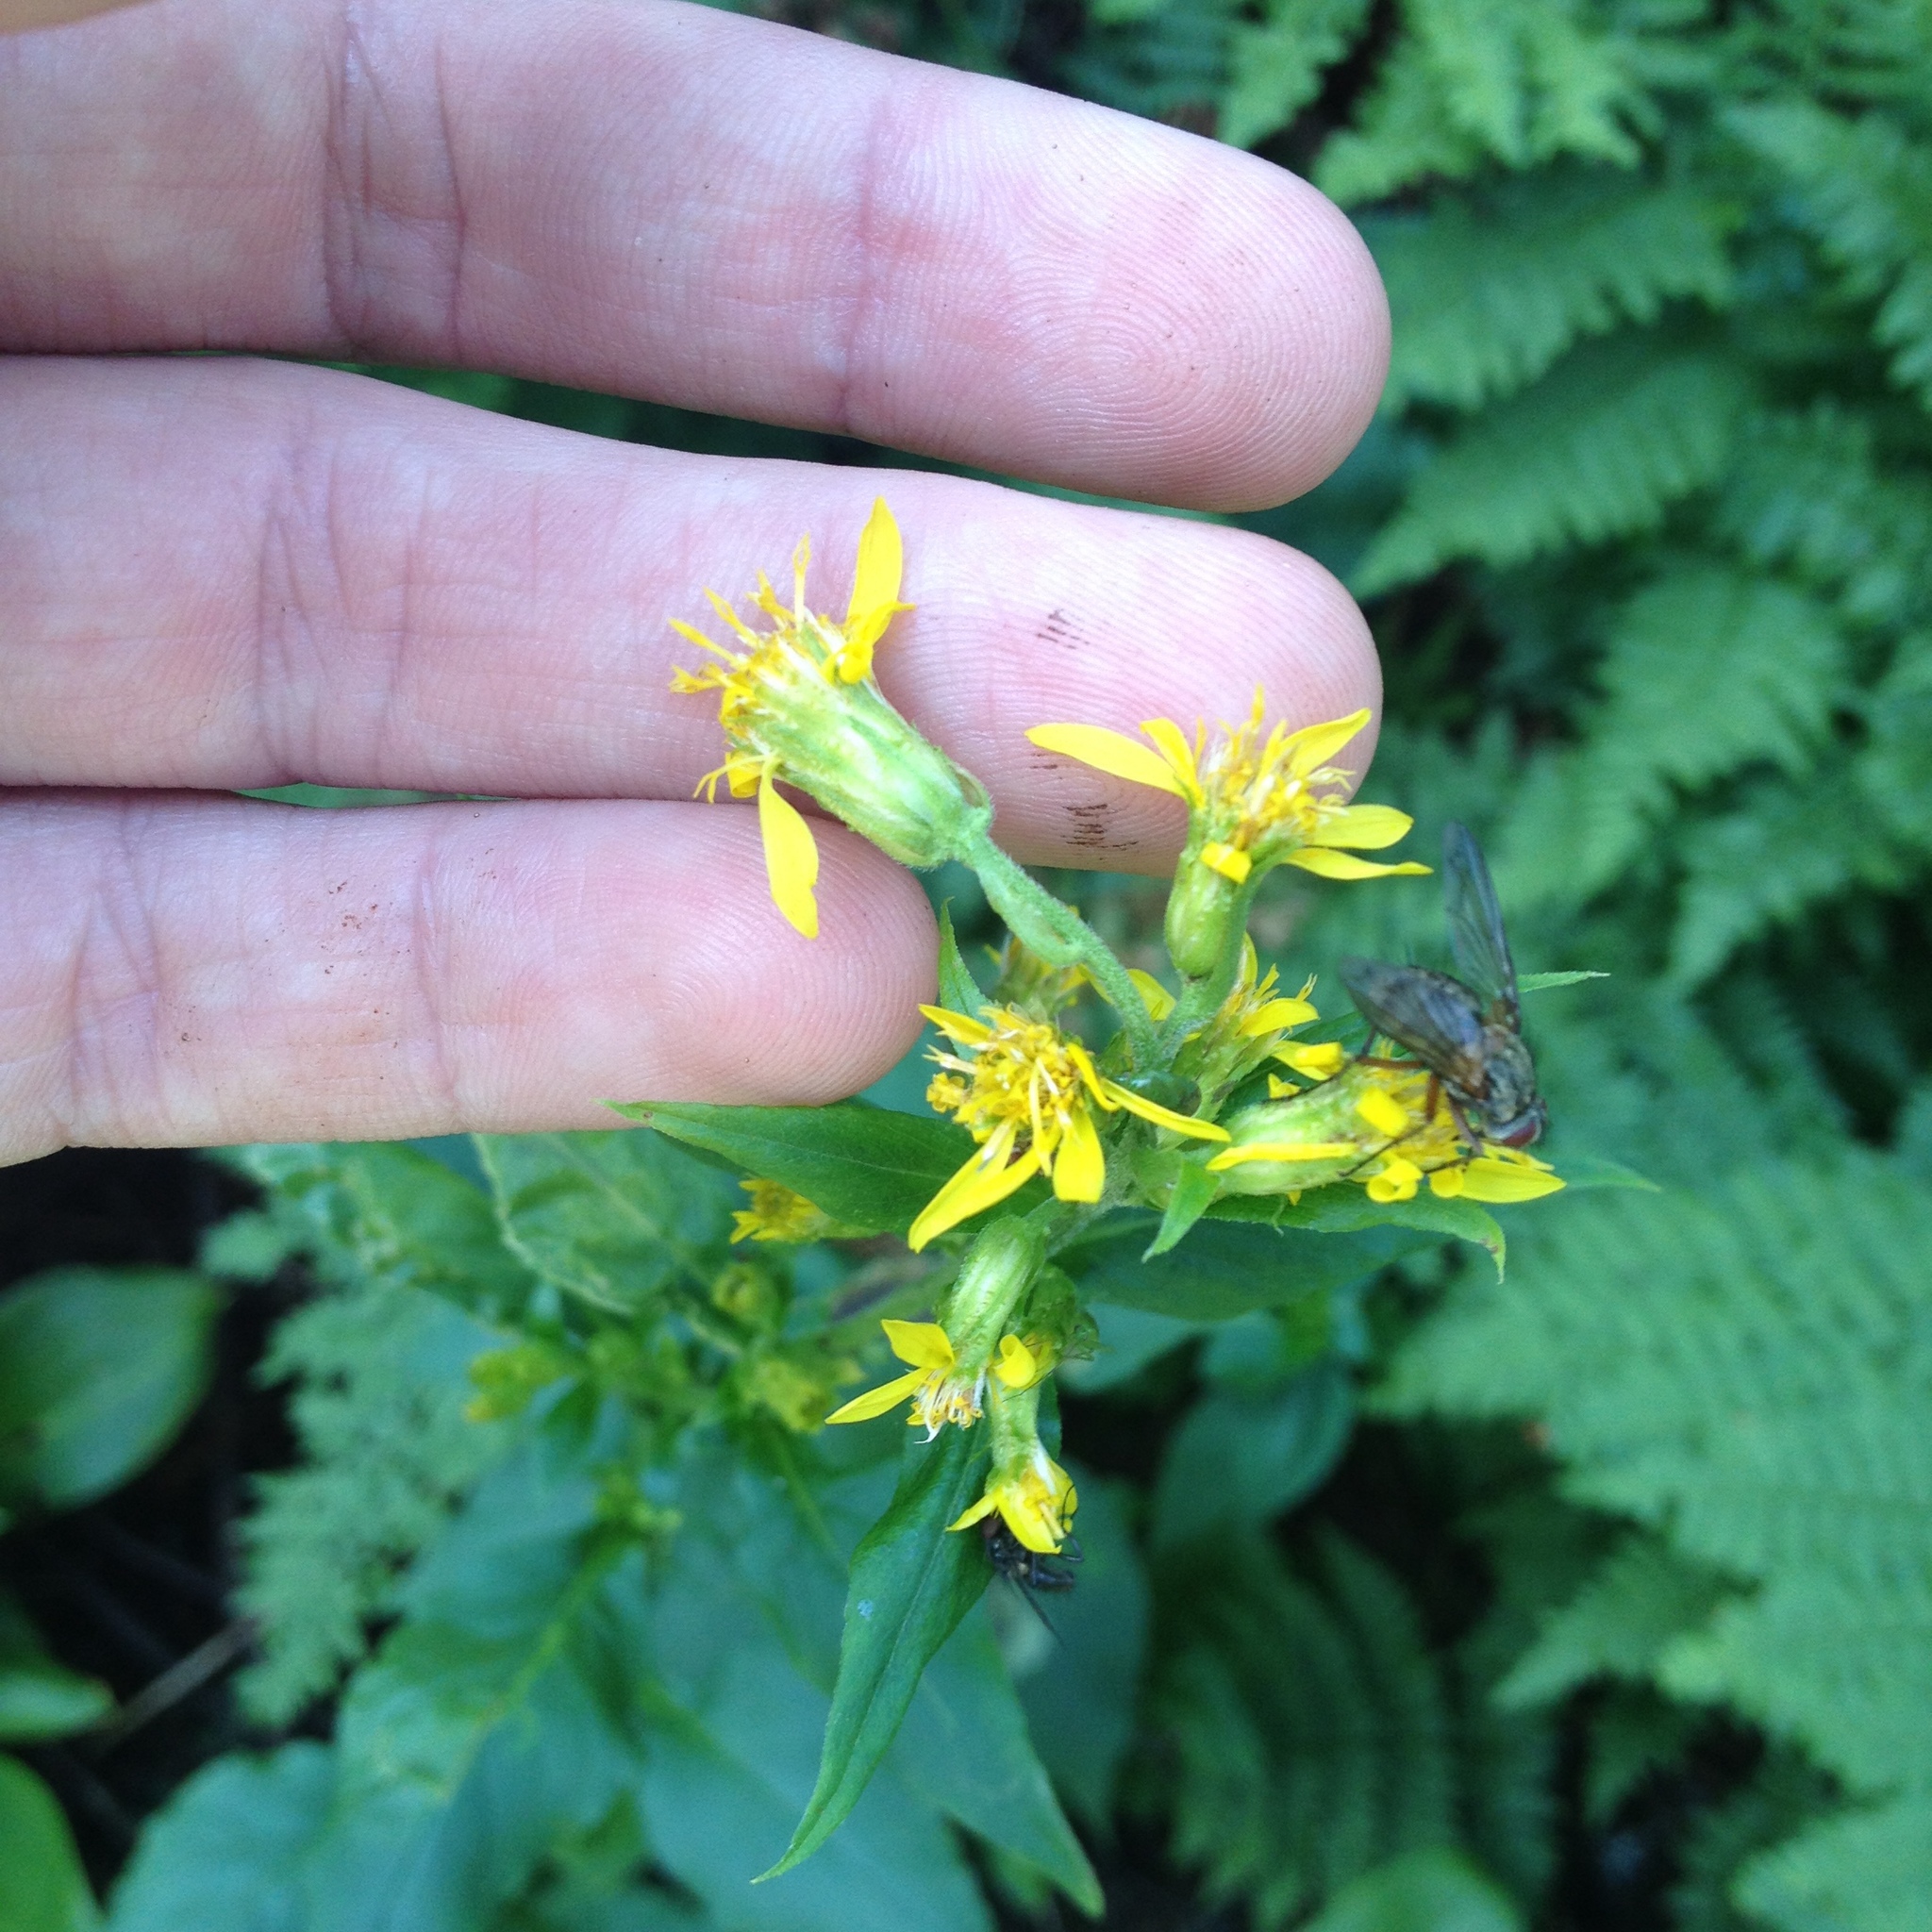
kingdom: Plantae
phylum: Tracheophyta
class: Magnoliopsida
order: Asterales
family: Asteraceae
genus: Solidago
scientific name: Solidago macrophylla
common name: Large-leaved goldenrod
